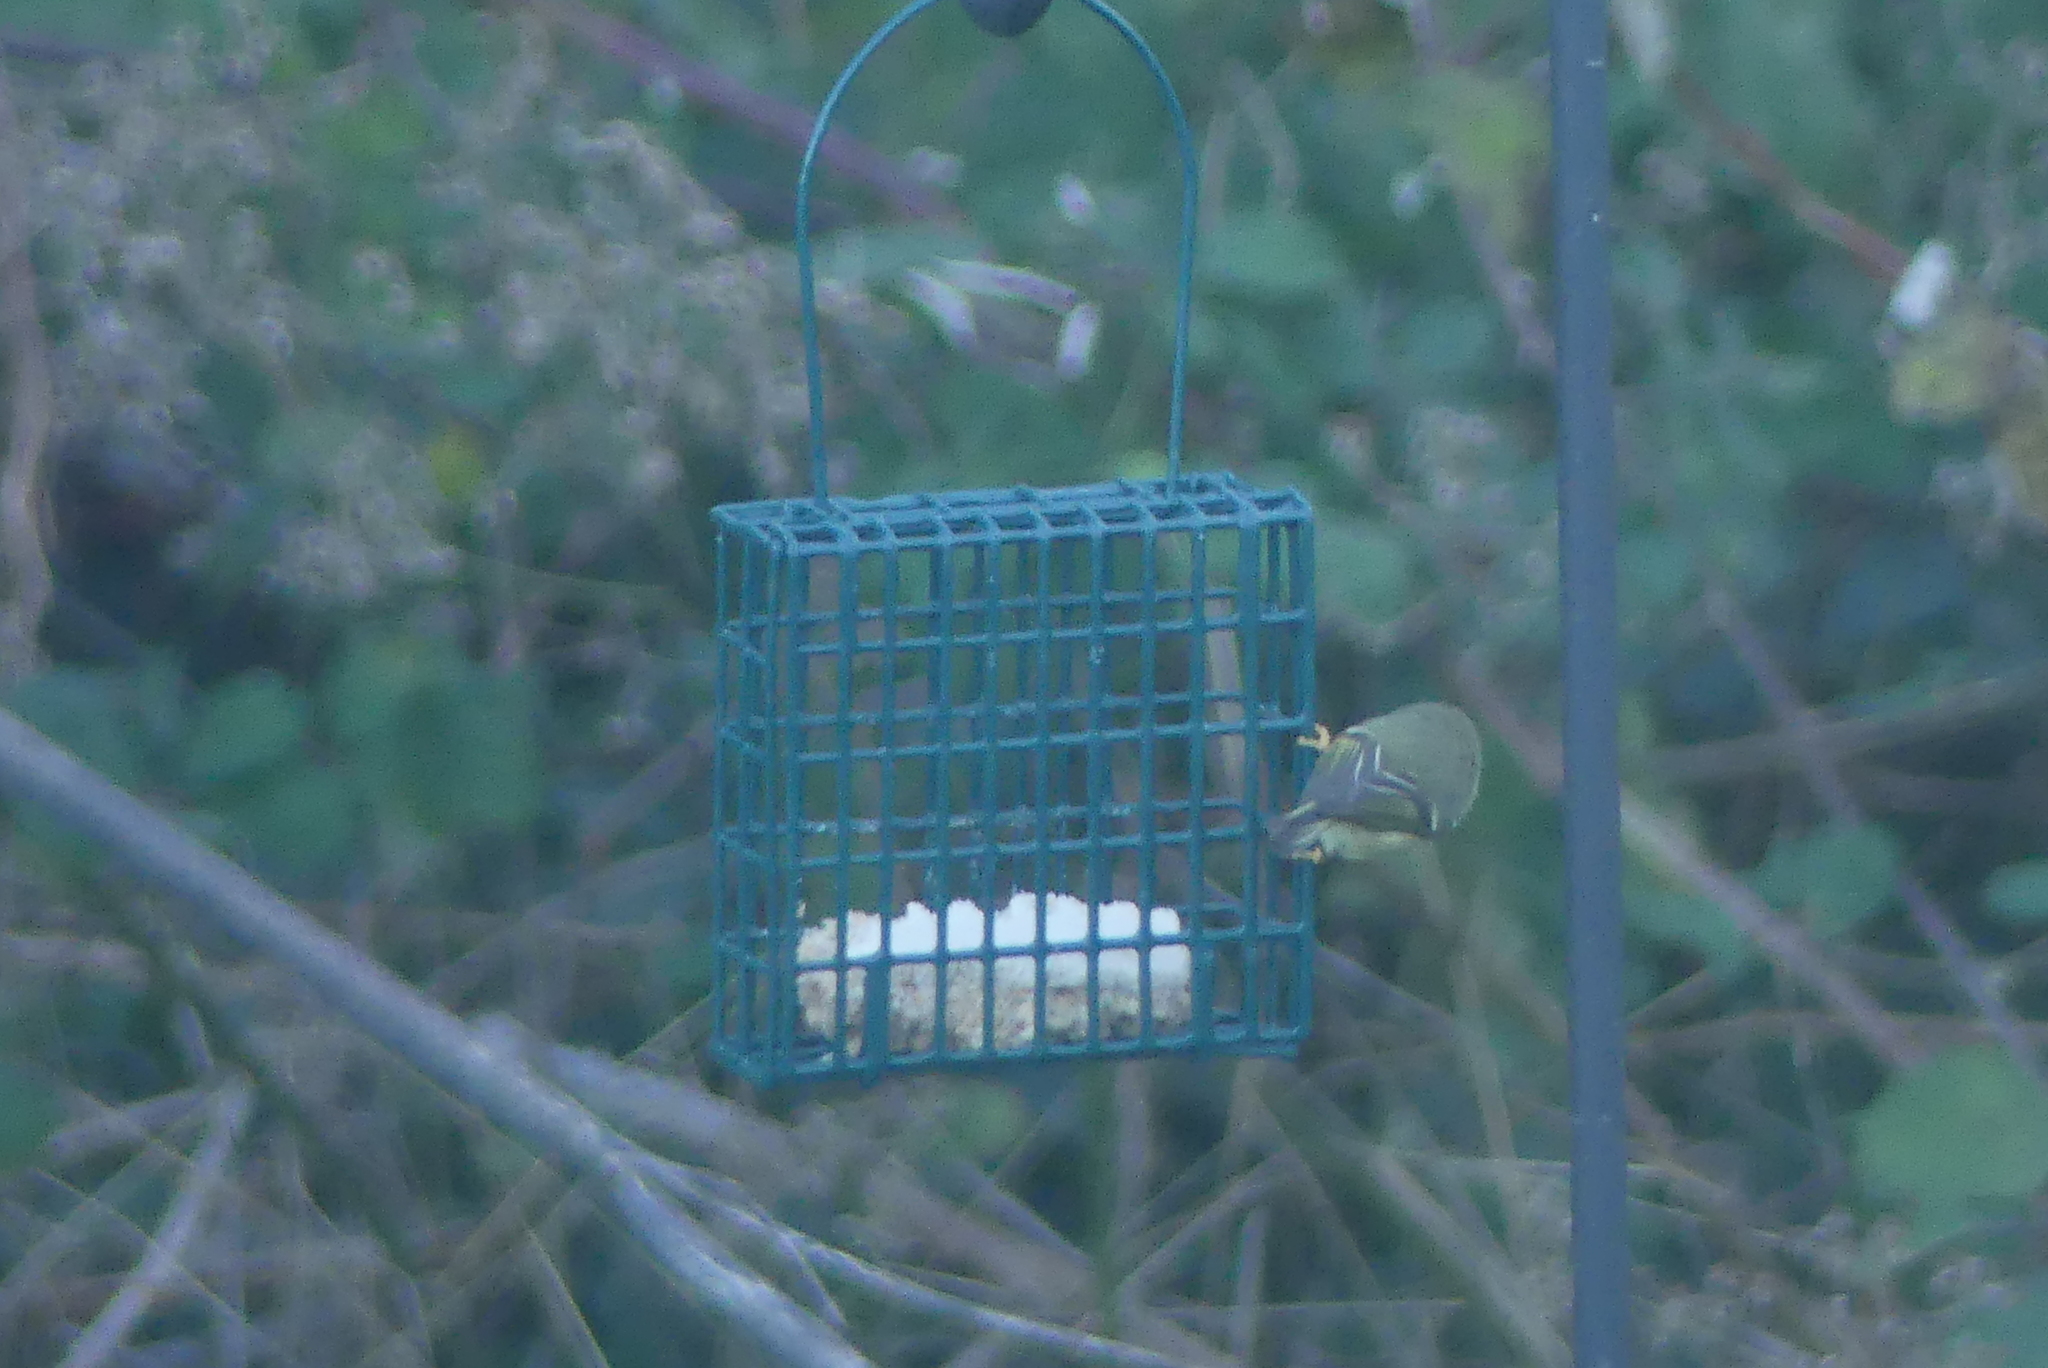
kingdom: Animalia
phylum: Chordata
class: Aves
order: Passeriformes
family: Regulidae
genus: Regulus
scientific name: Regulus calendula
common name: Ruby-crowned kinglet
